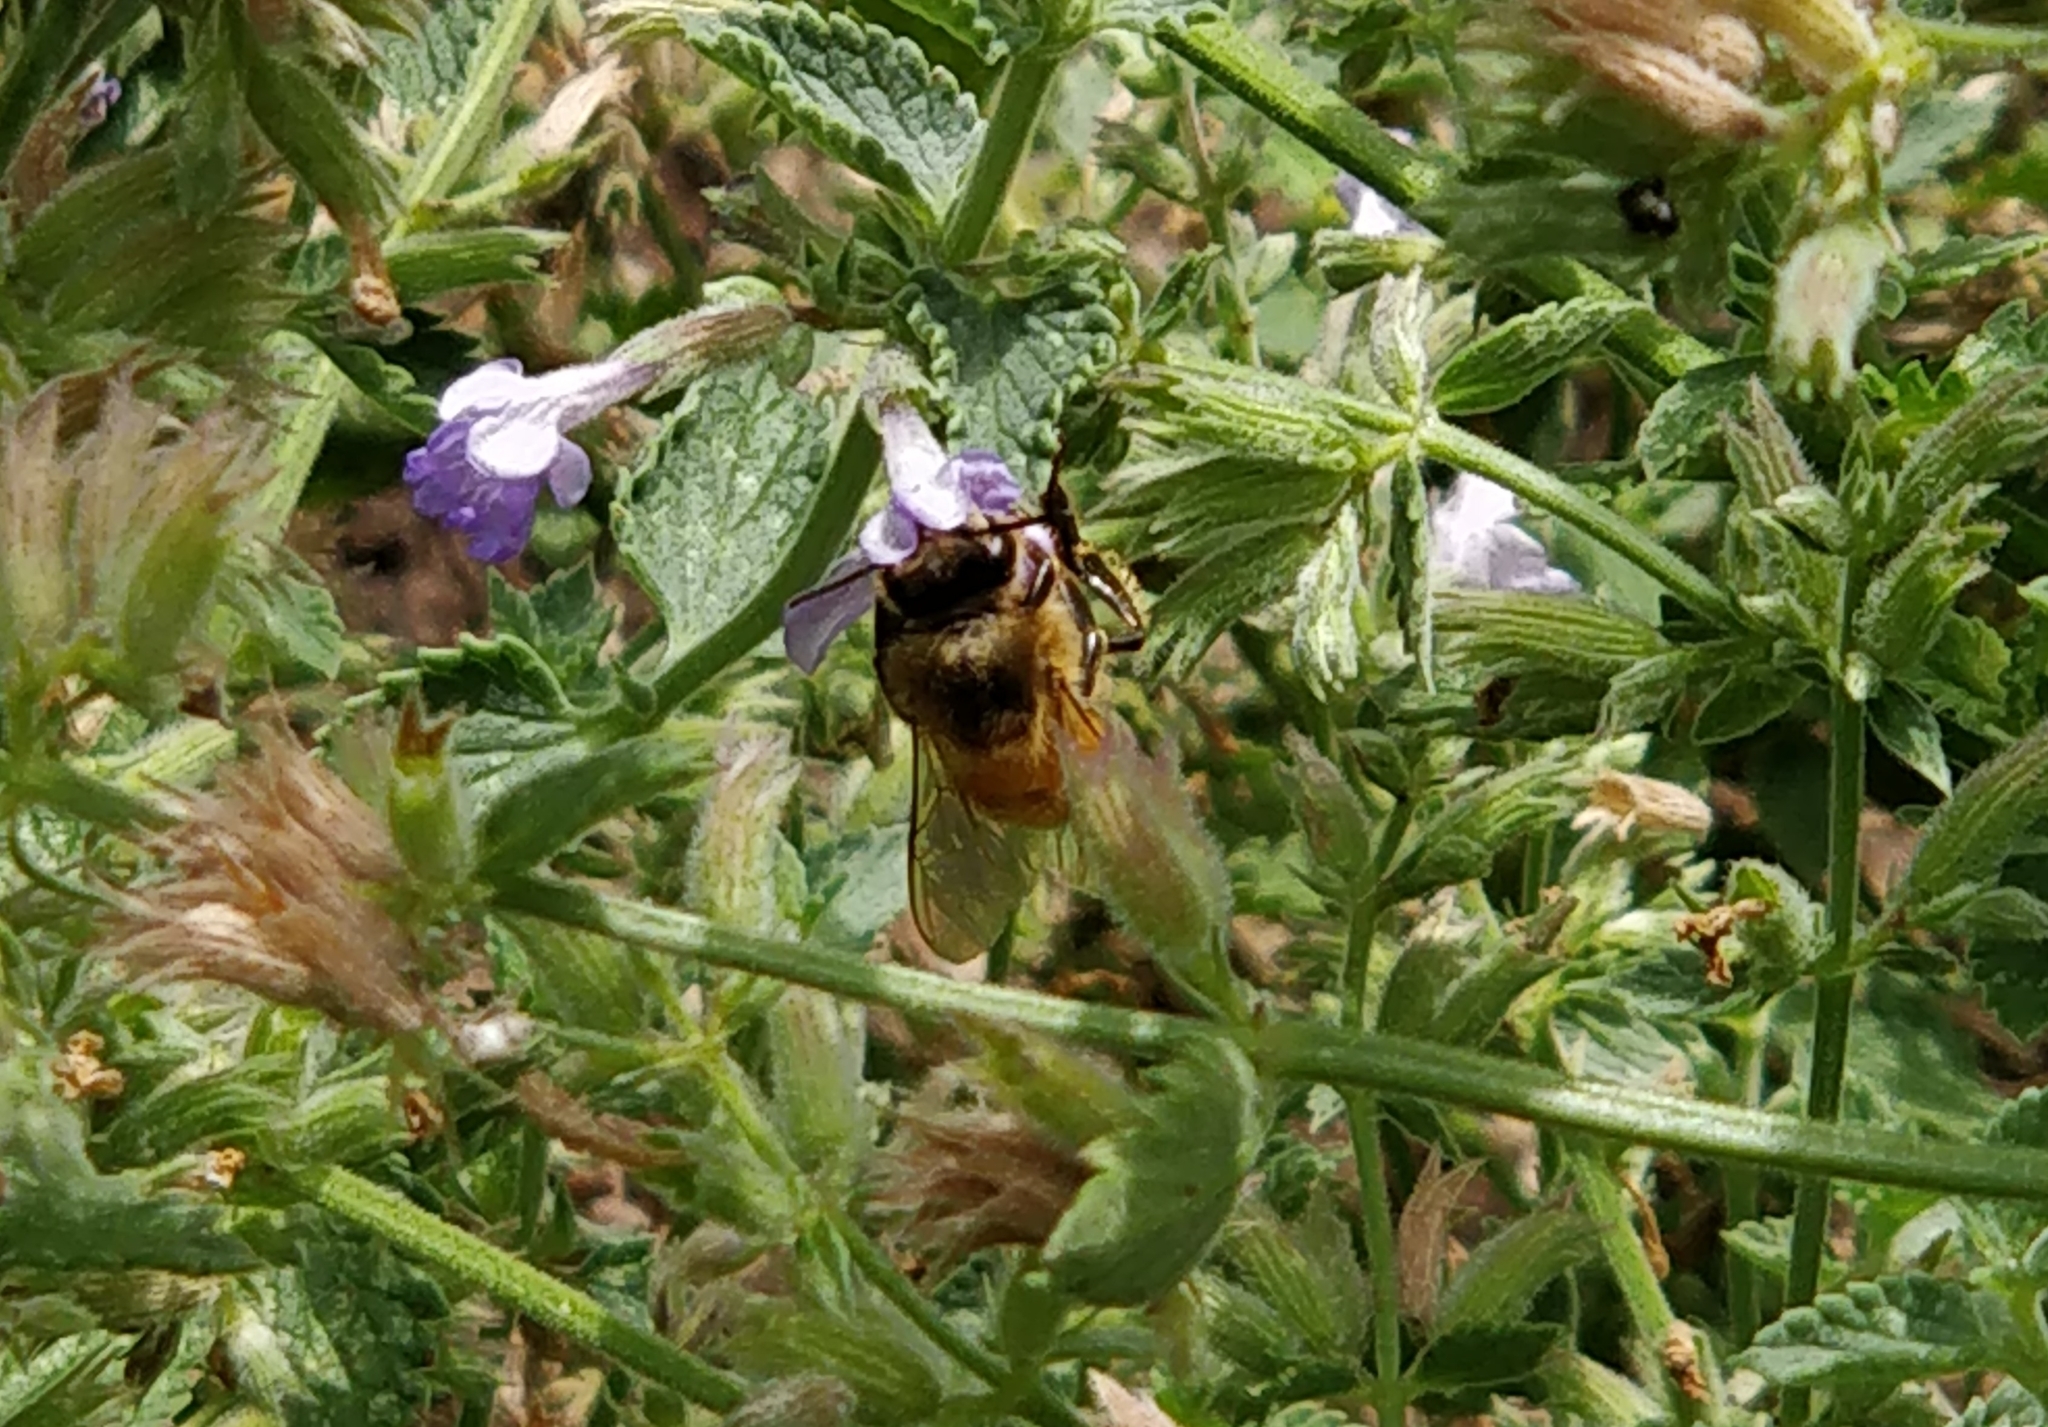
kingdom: Animalia
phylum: Arthropoda
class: Insecta
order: Hymenoptera
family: Apidae
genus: Apis
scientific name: Apis mellifera
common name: Honey bee
